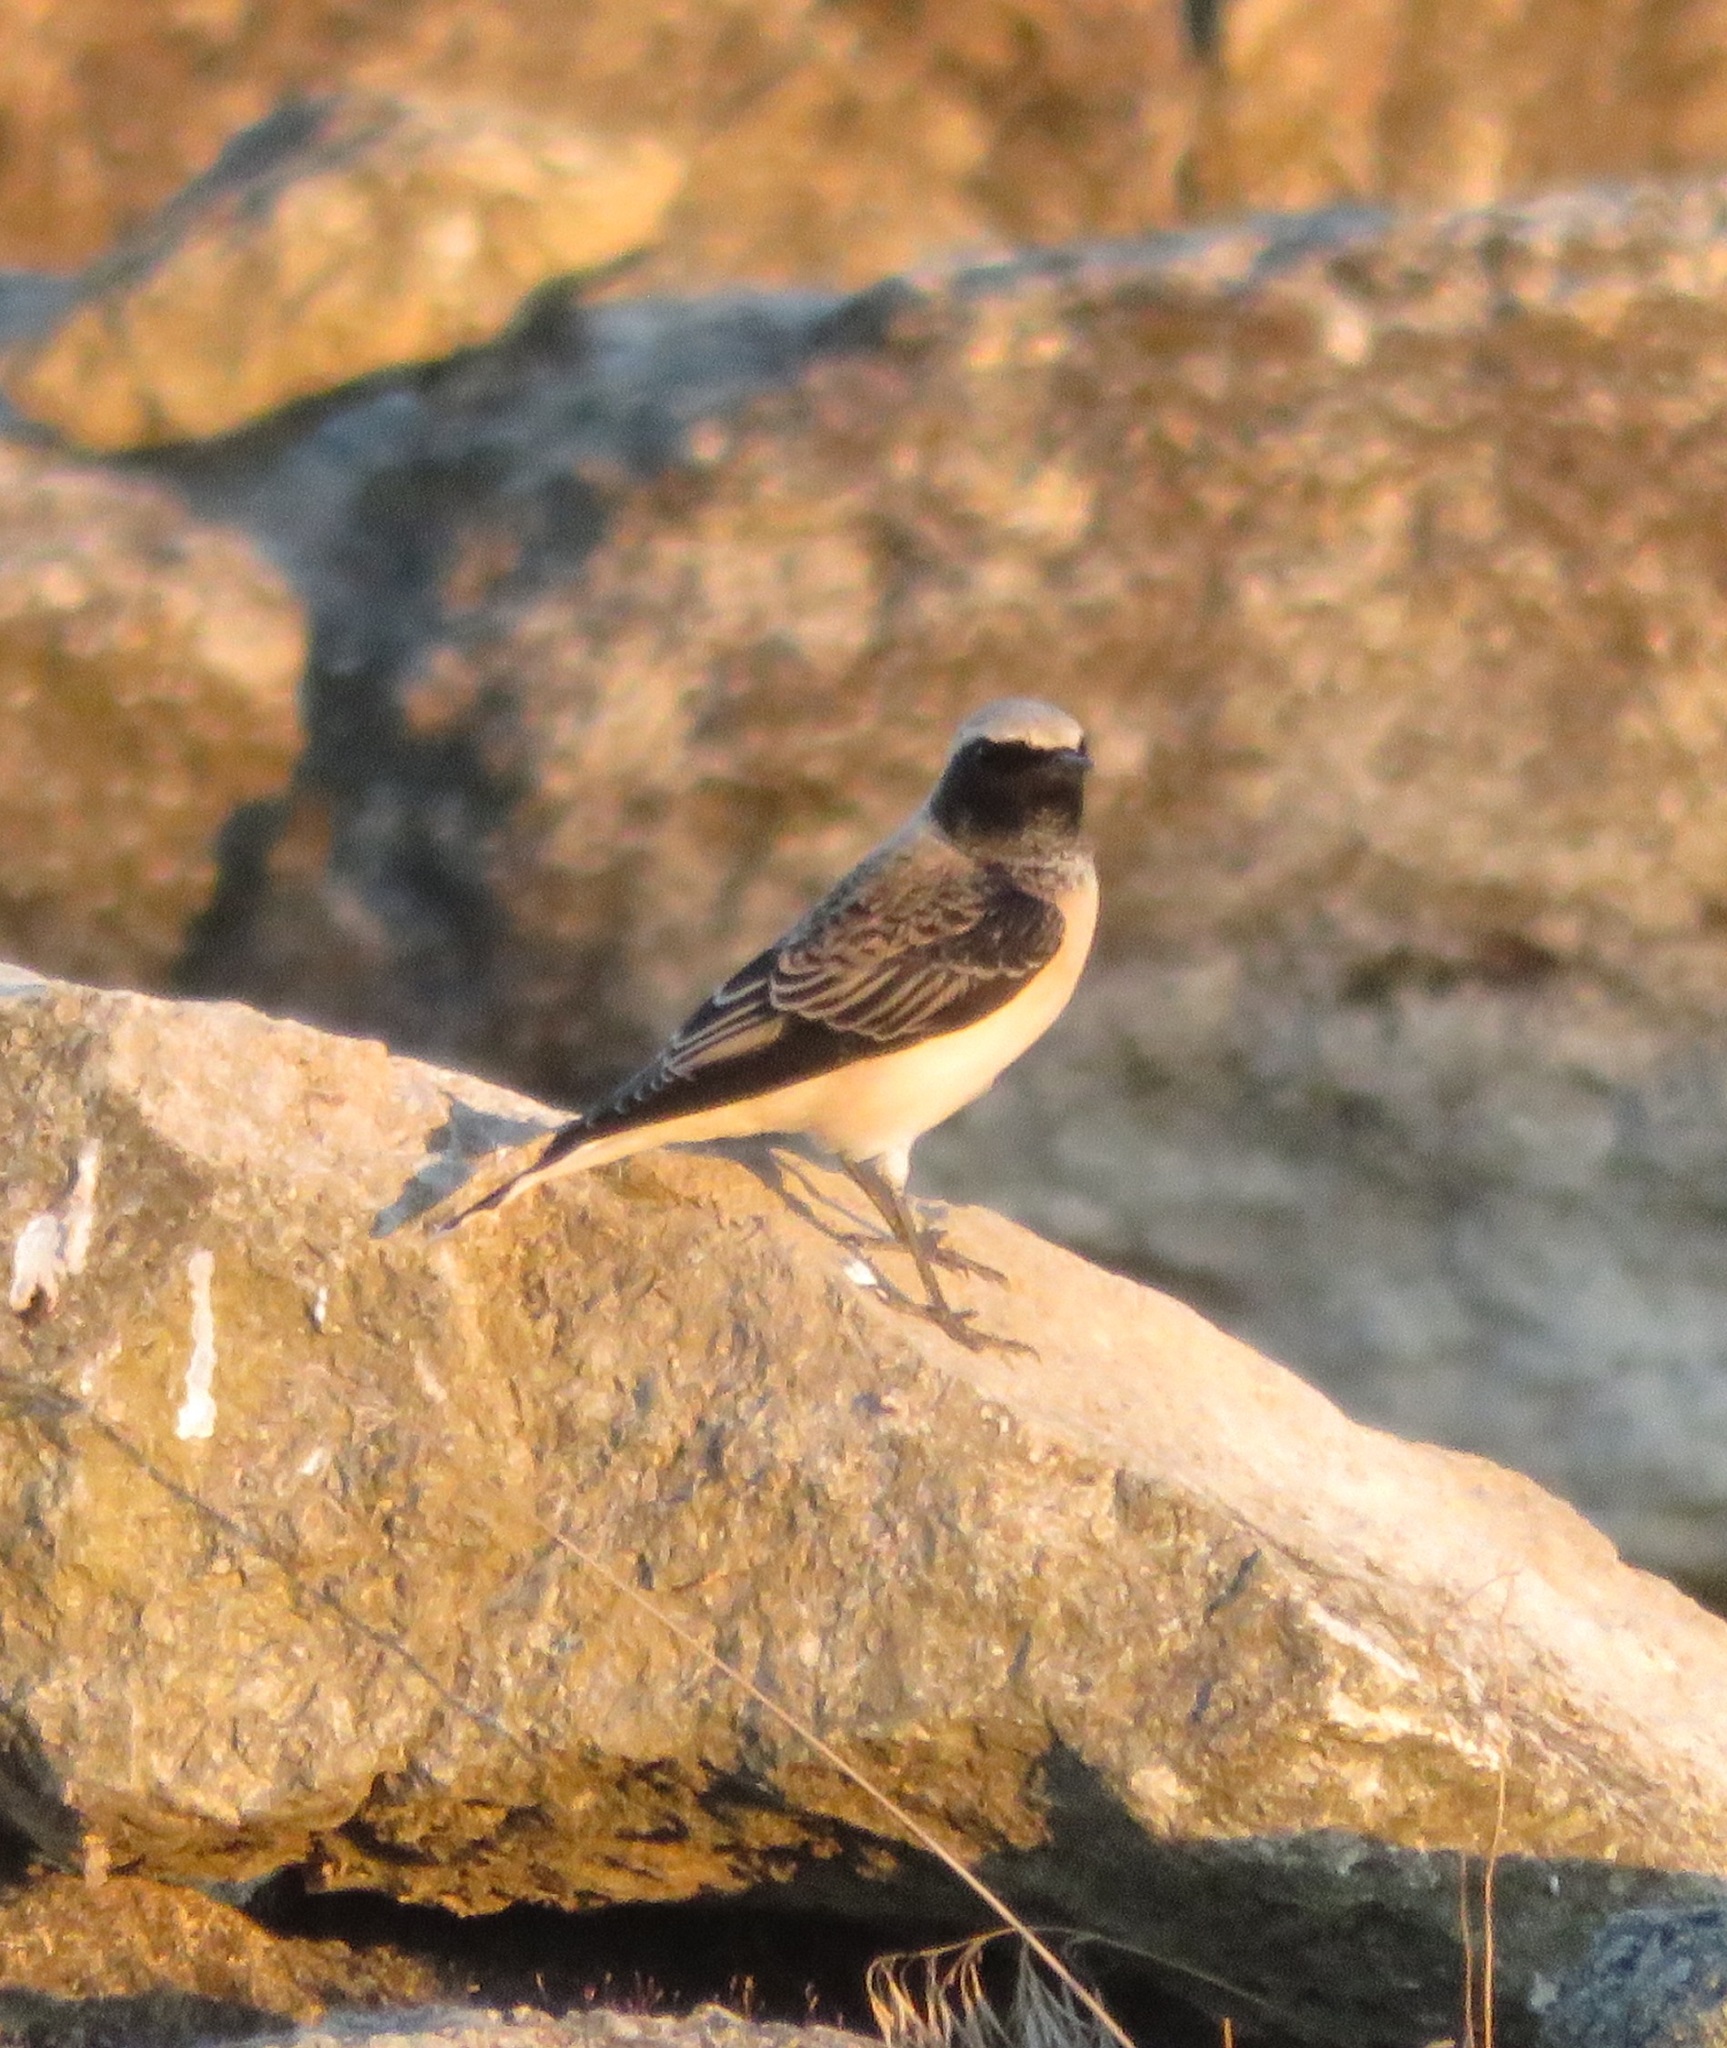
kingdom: Animalia
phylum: Chordata
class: Aves
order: Passeriformes
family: Muscicapidae
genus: Oenanthe
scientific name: Oenanthe pleschanka
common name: Pied wheatear
